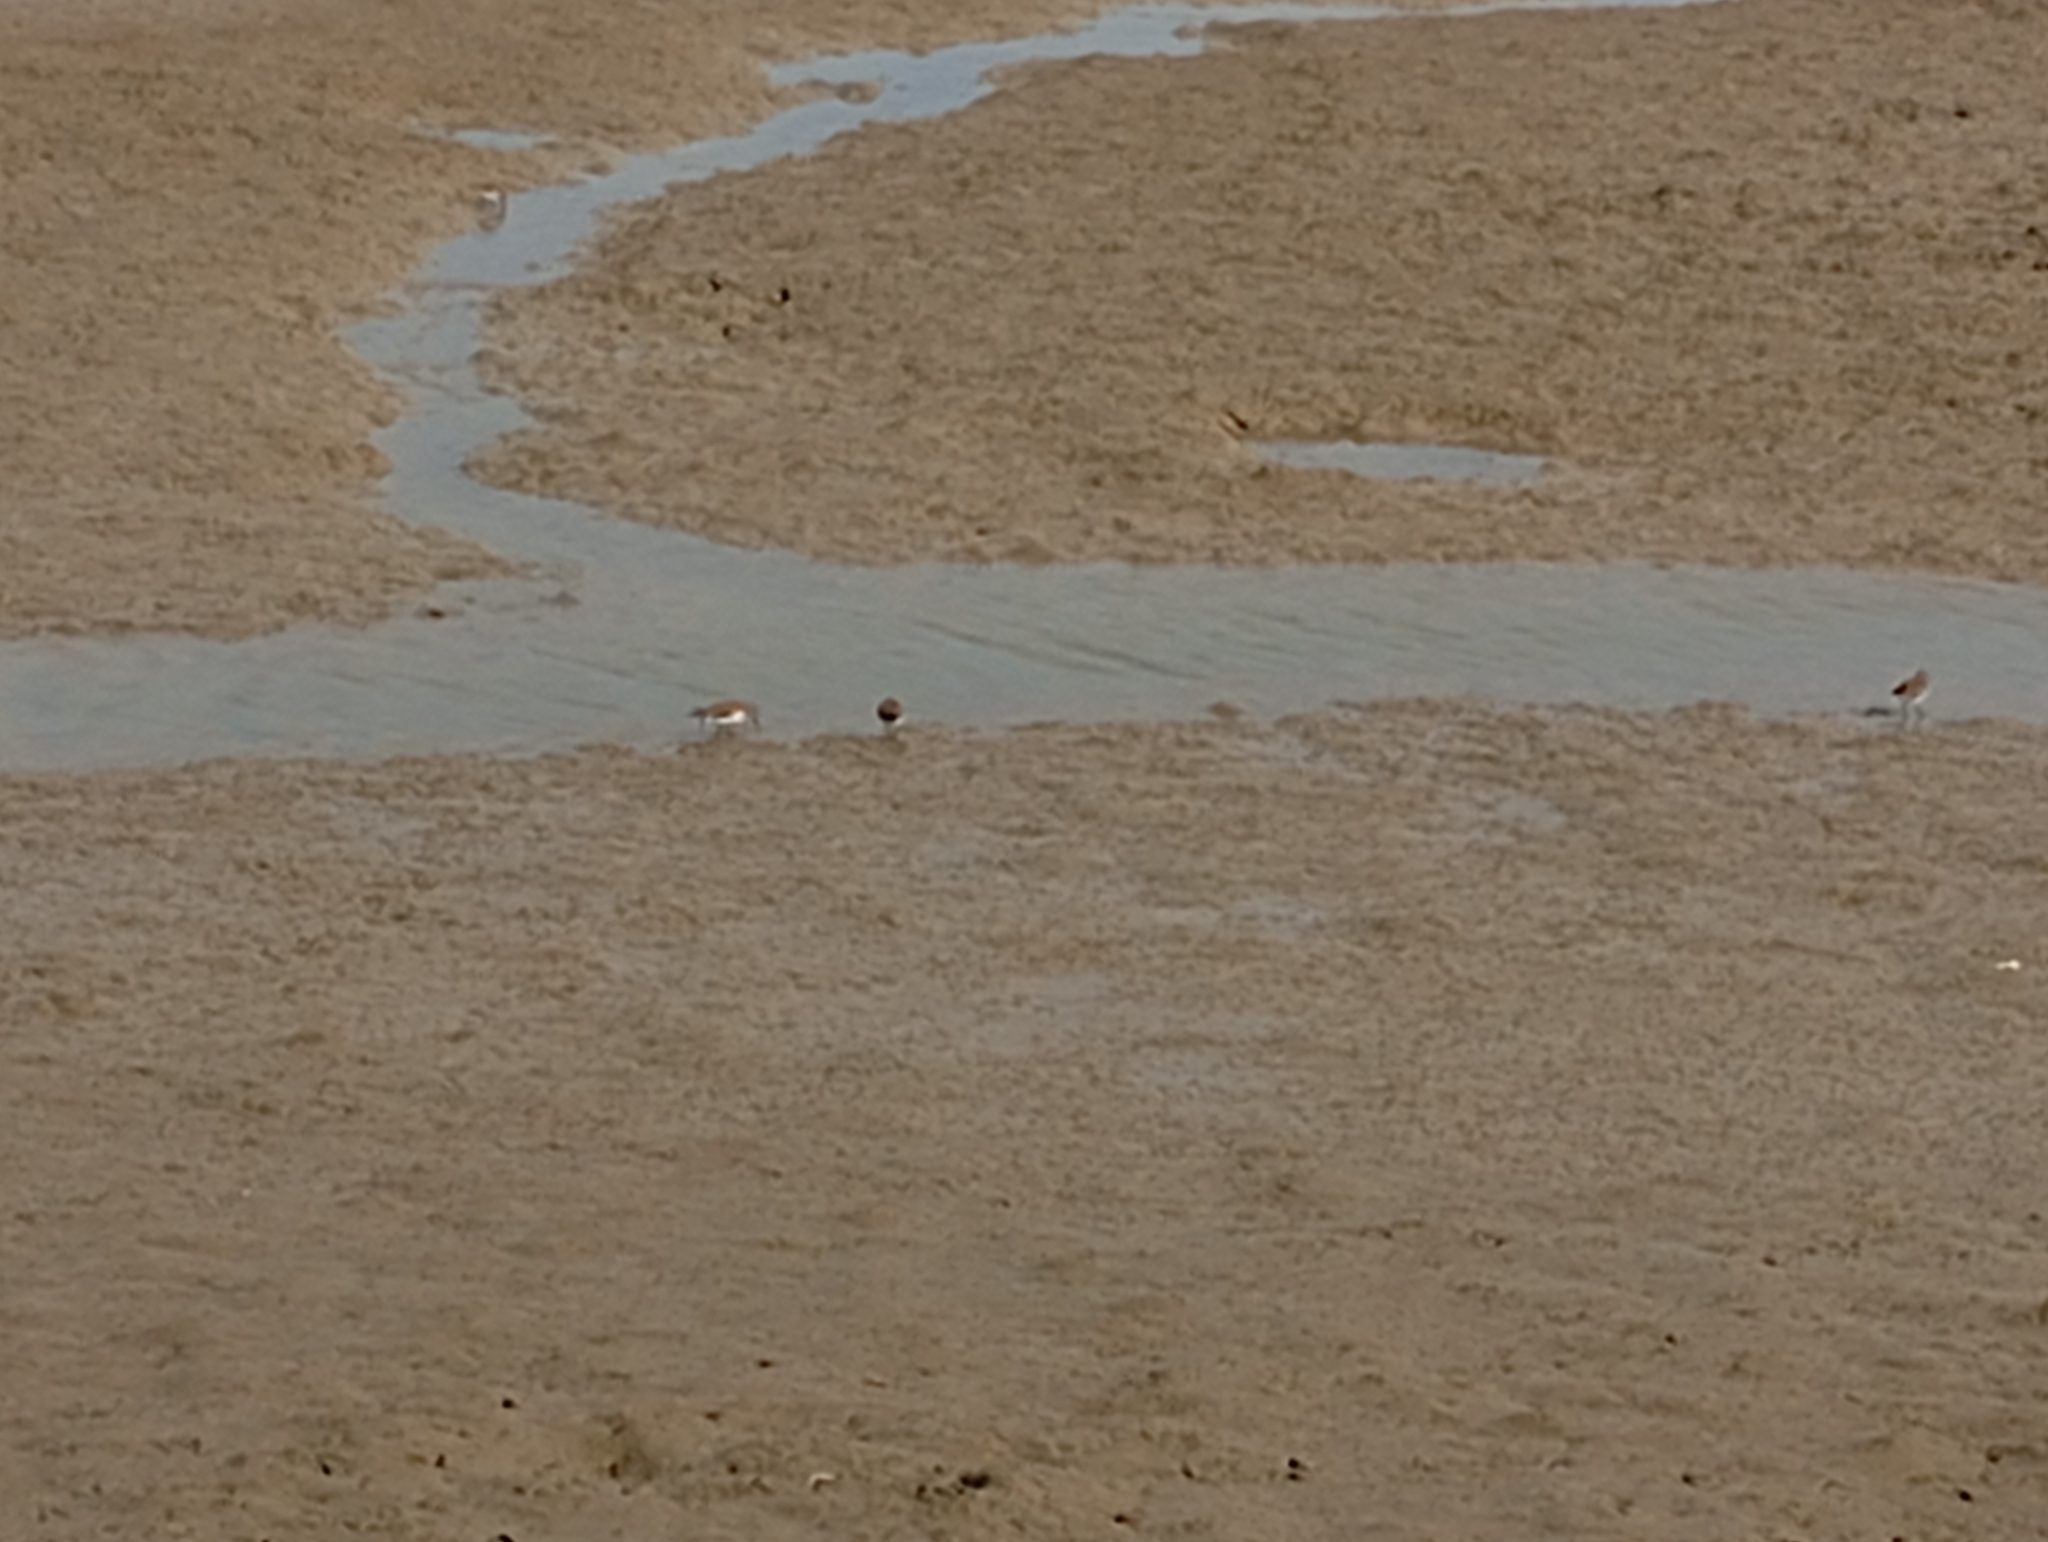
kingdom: Animalia
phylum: Chordata
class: Aves
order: Charadriiformes
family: Scolopacidae
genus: Calidris
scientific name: Calidris alpina
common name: Dunlin
